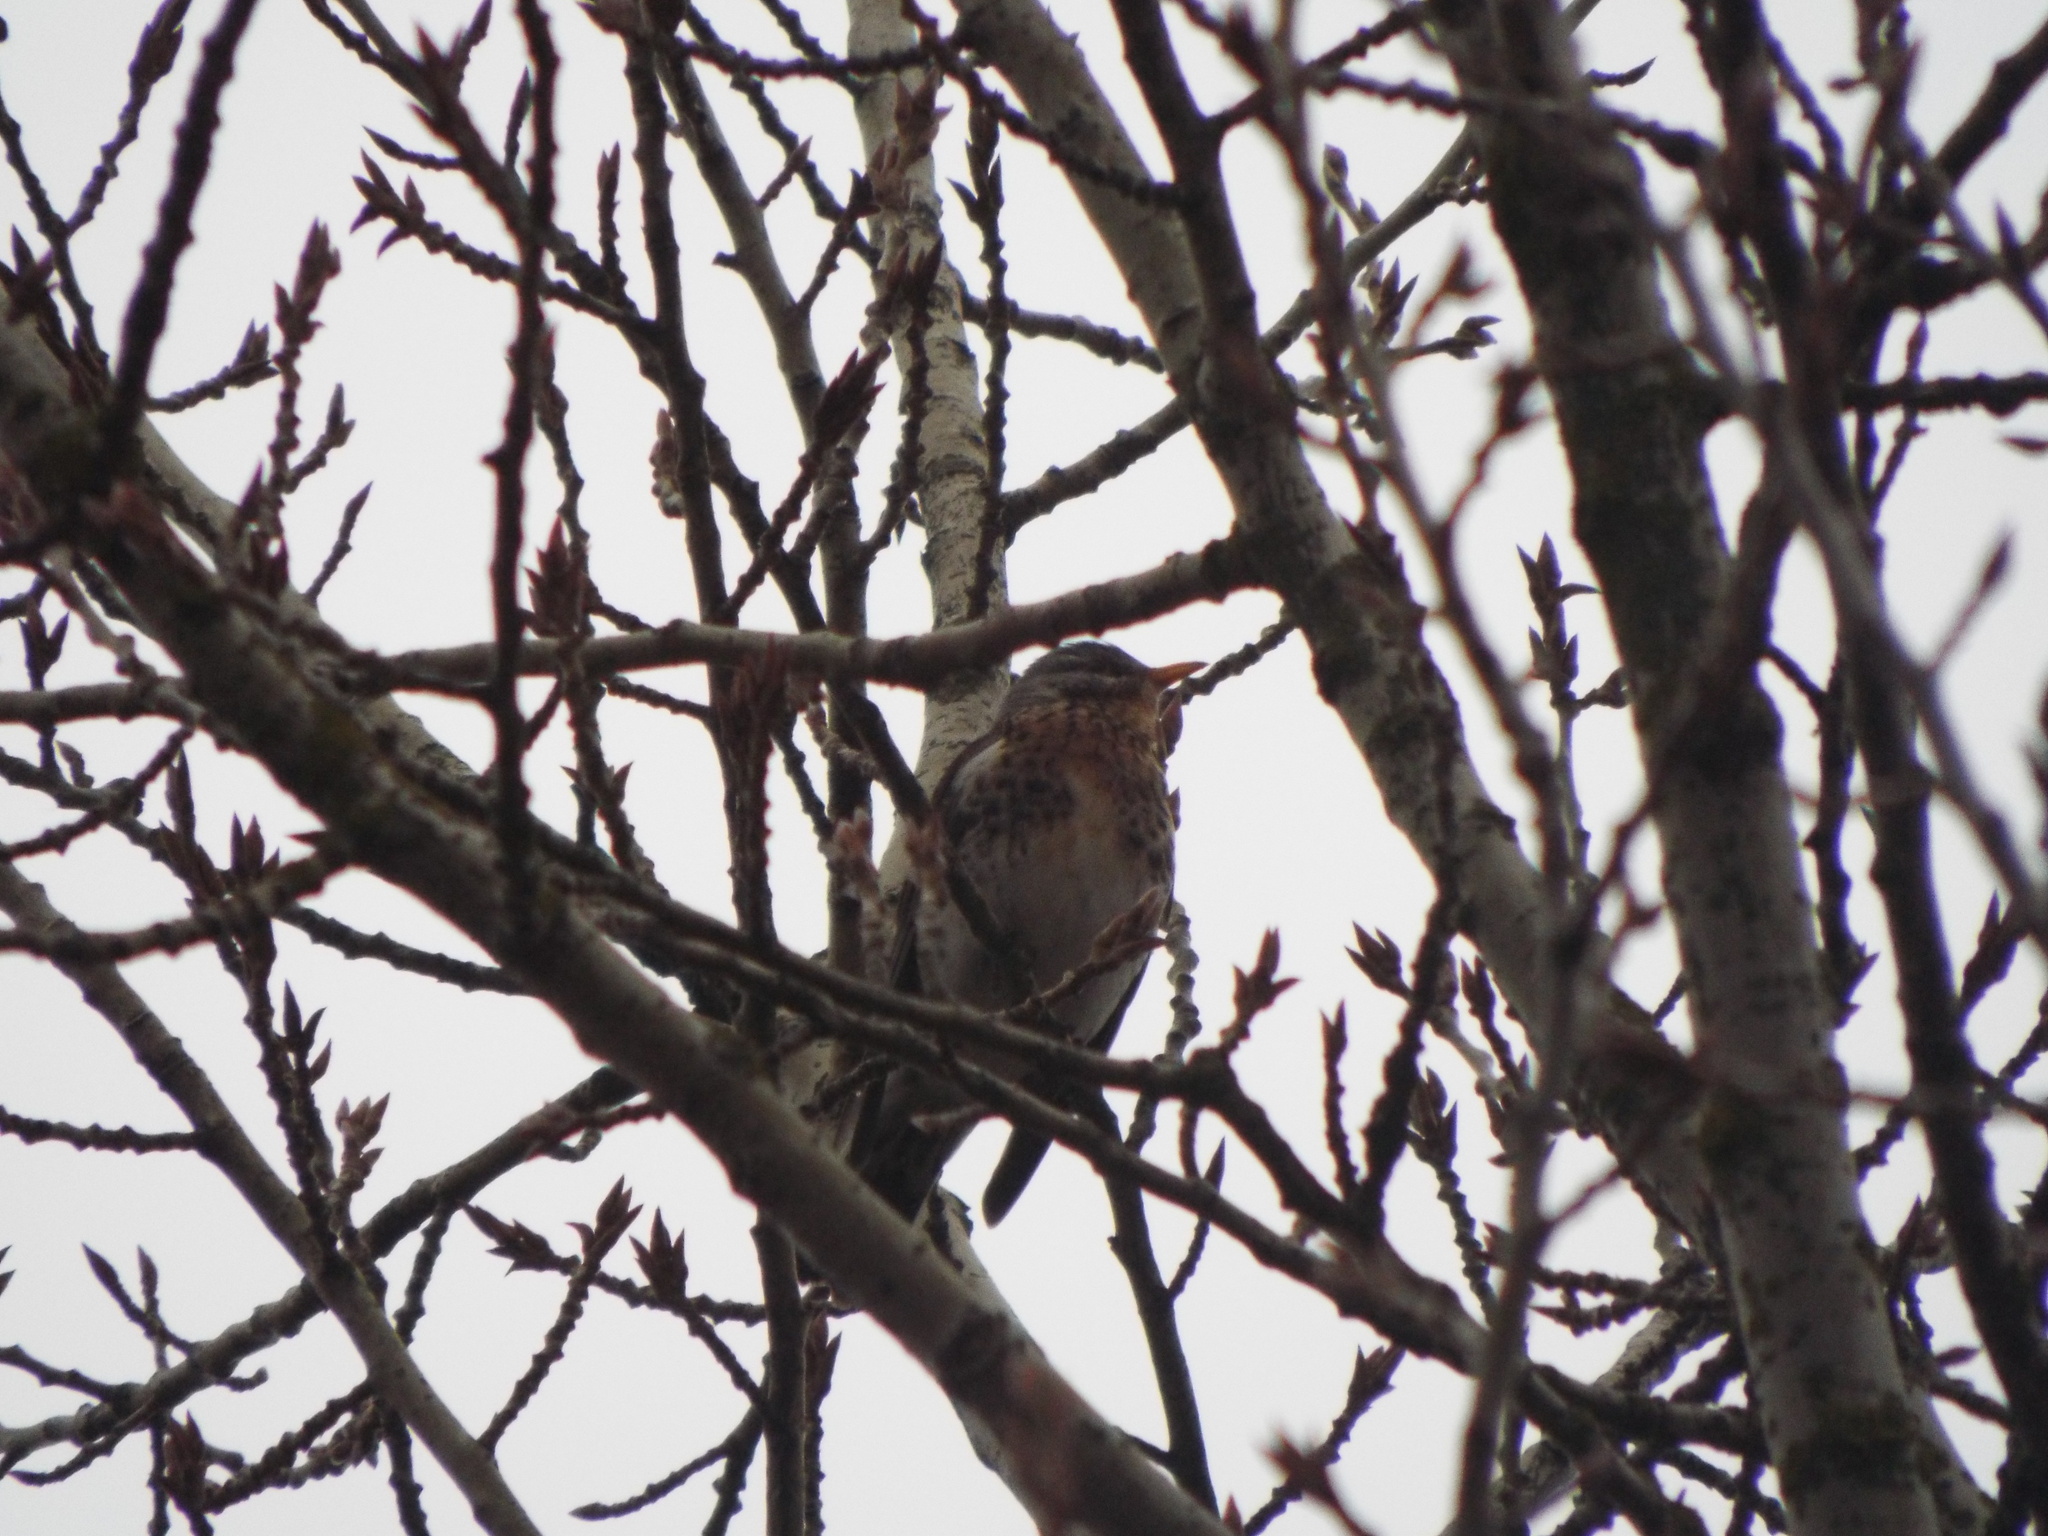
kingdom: Animalia
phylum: Chordata
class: Aves
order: Passeriformes
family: Turdidae
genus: Turdus
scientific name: Turdus pilaris
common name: Fieldfare
